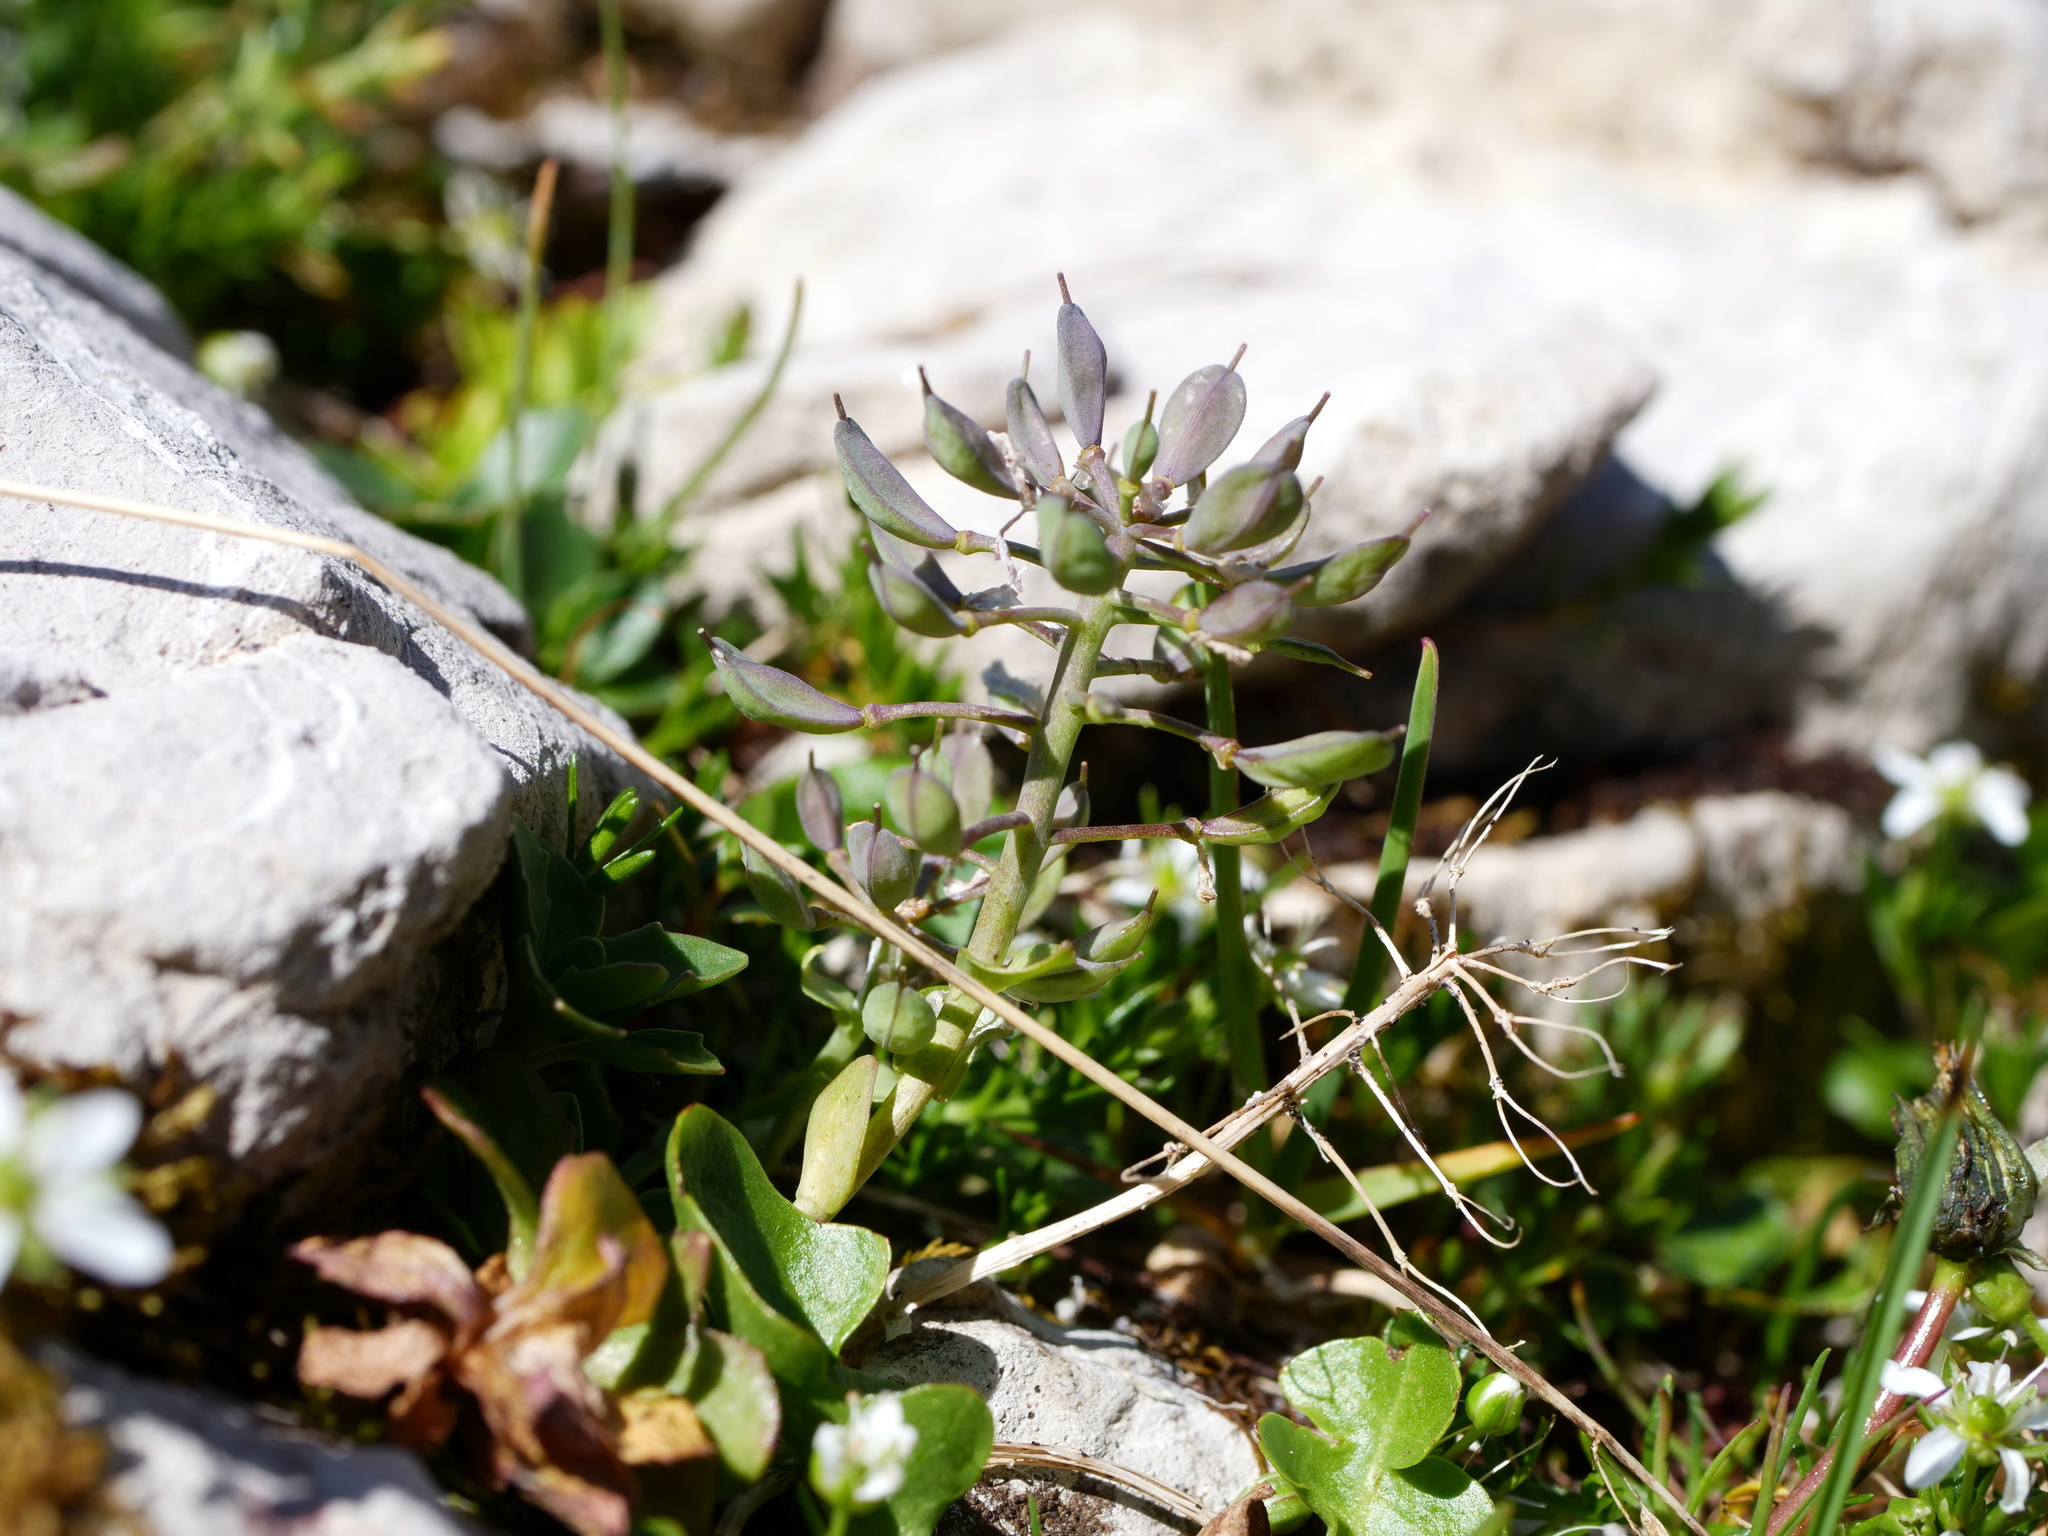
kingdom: Plantae
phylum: Tracheophyta
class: Magnoliopsida
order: Brassicales
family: Brassicaceae
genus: Noccaea
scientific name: Noccaea rotundifolia
